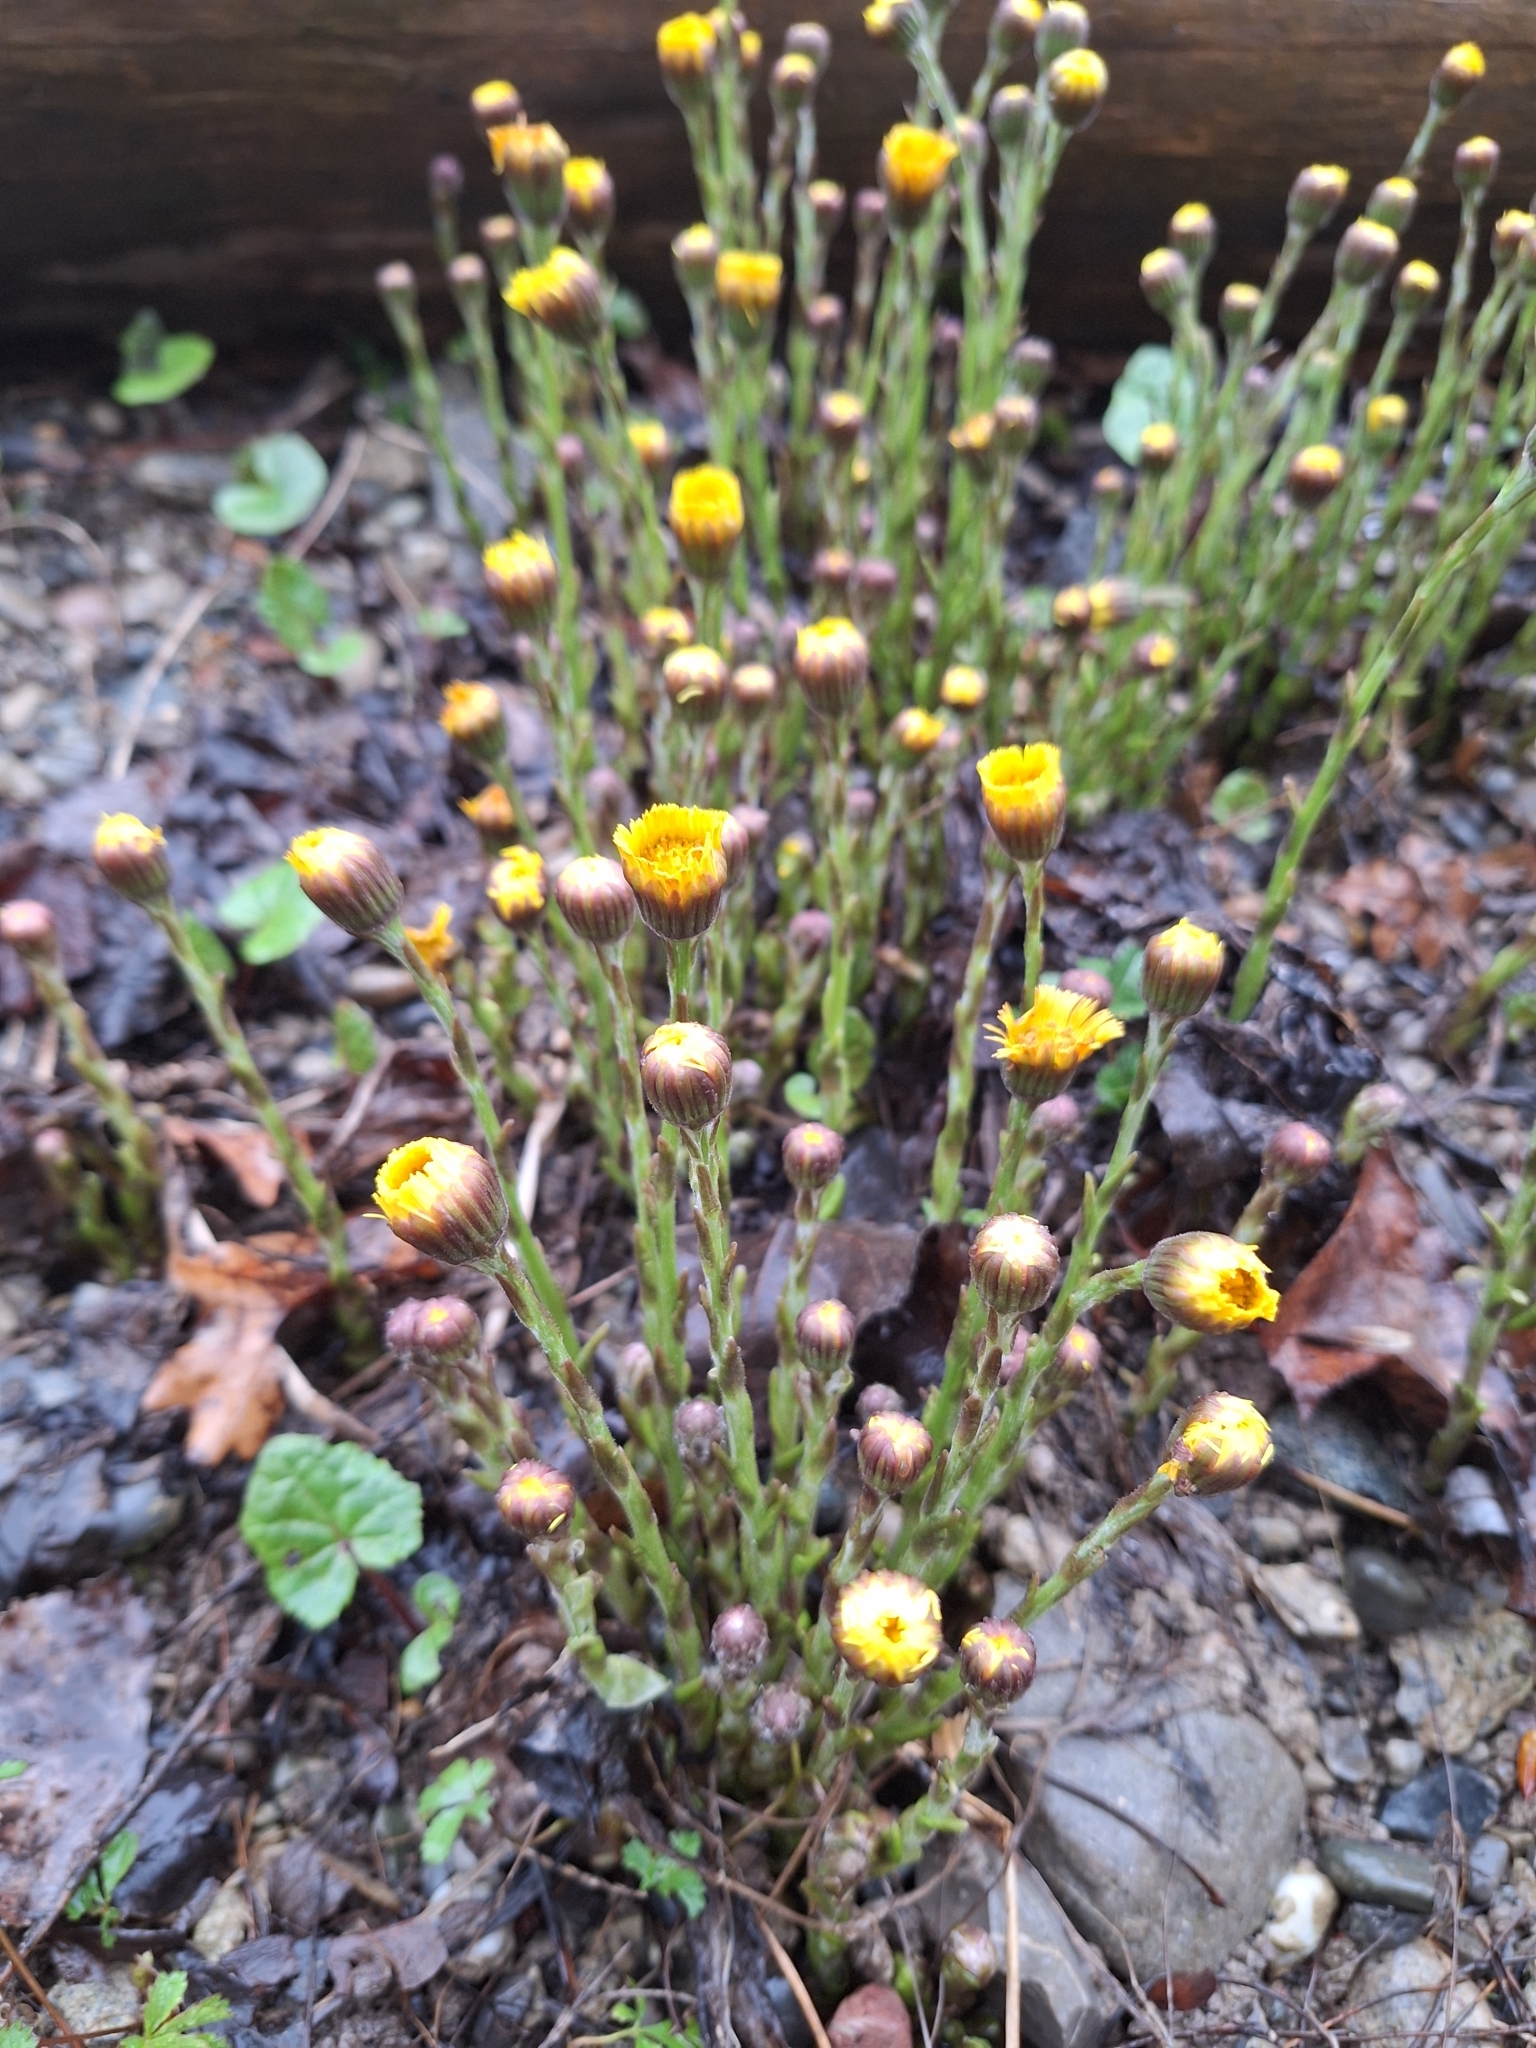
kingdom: Plantae
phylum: Tracheophyta
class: Magnoliopsida
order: Asterales
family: Asteraceae
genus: Tussilago
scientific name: Tussilago farfara
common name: Coltsfoot
